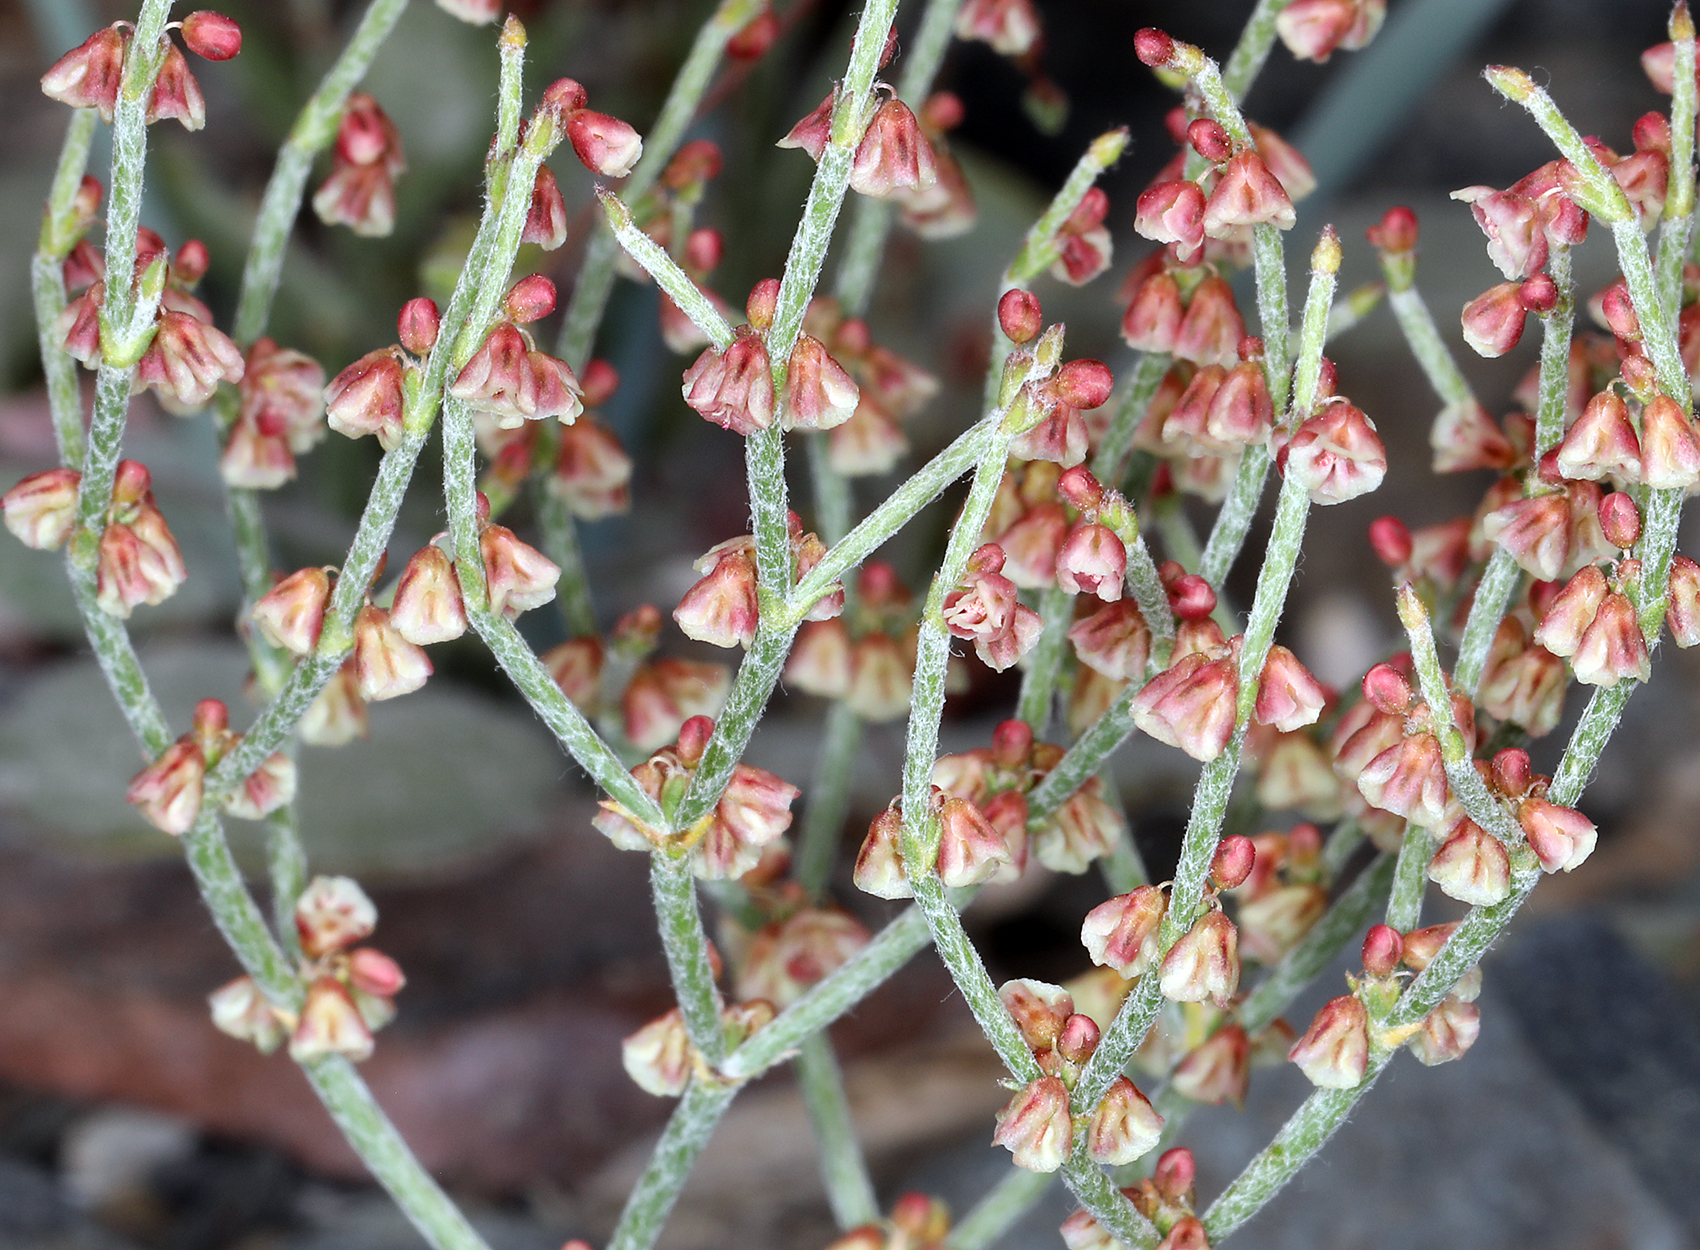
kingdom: Plantae
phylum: Tracheophyta
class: Magnoliopsida
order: Caryophyllales
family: Polygonaceae
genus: Eriogonum
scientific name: Eriogonum nidularium
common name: Bird's-nest wild buckwheat
